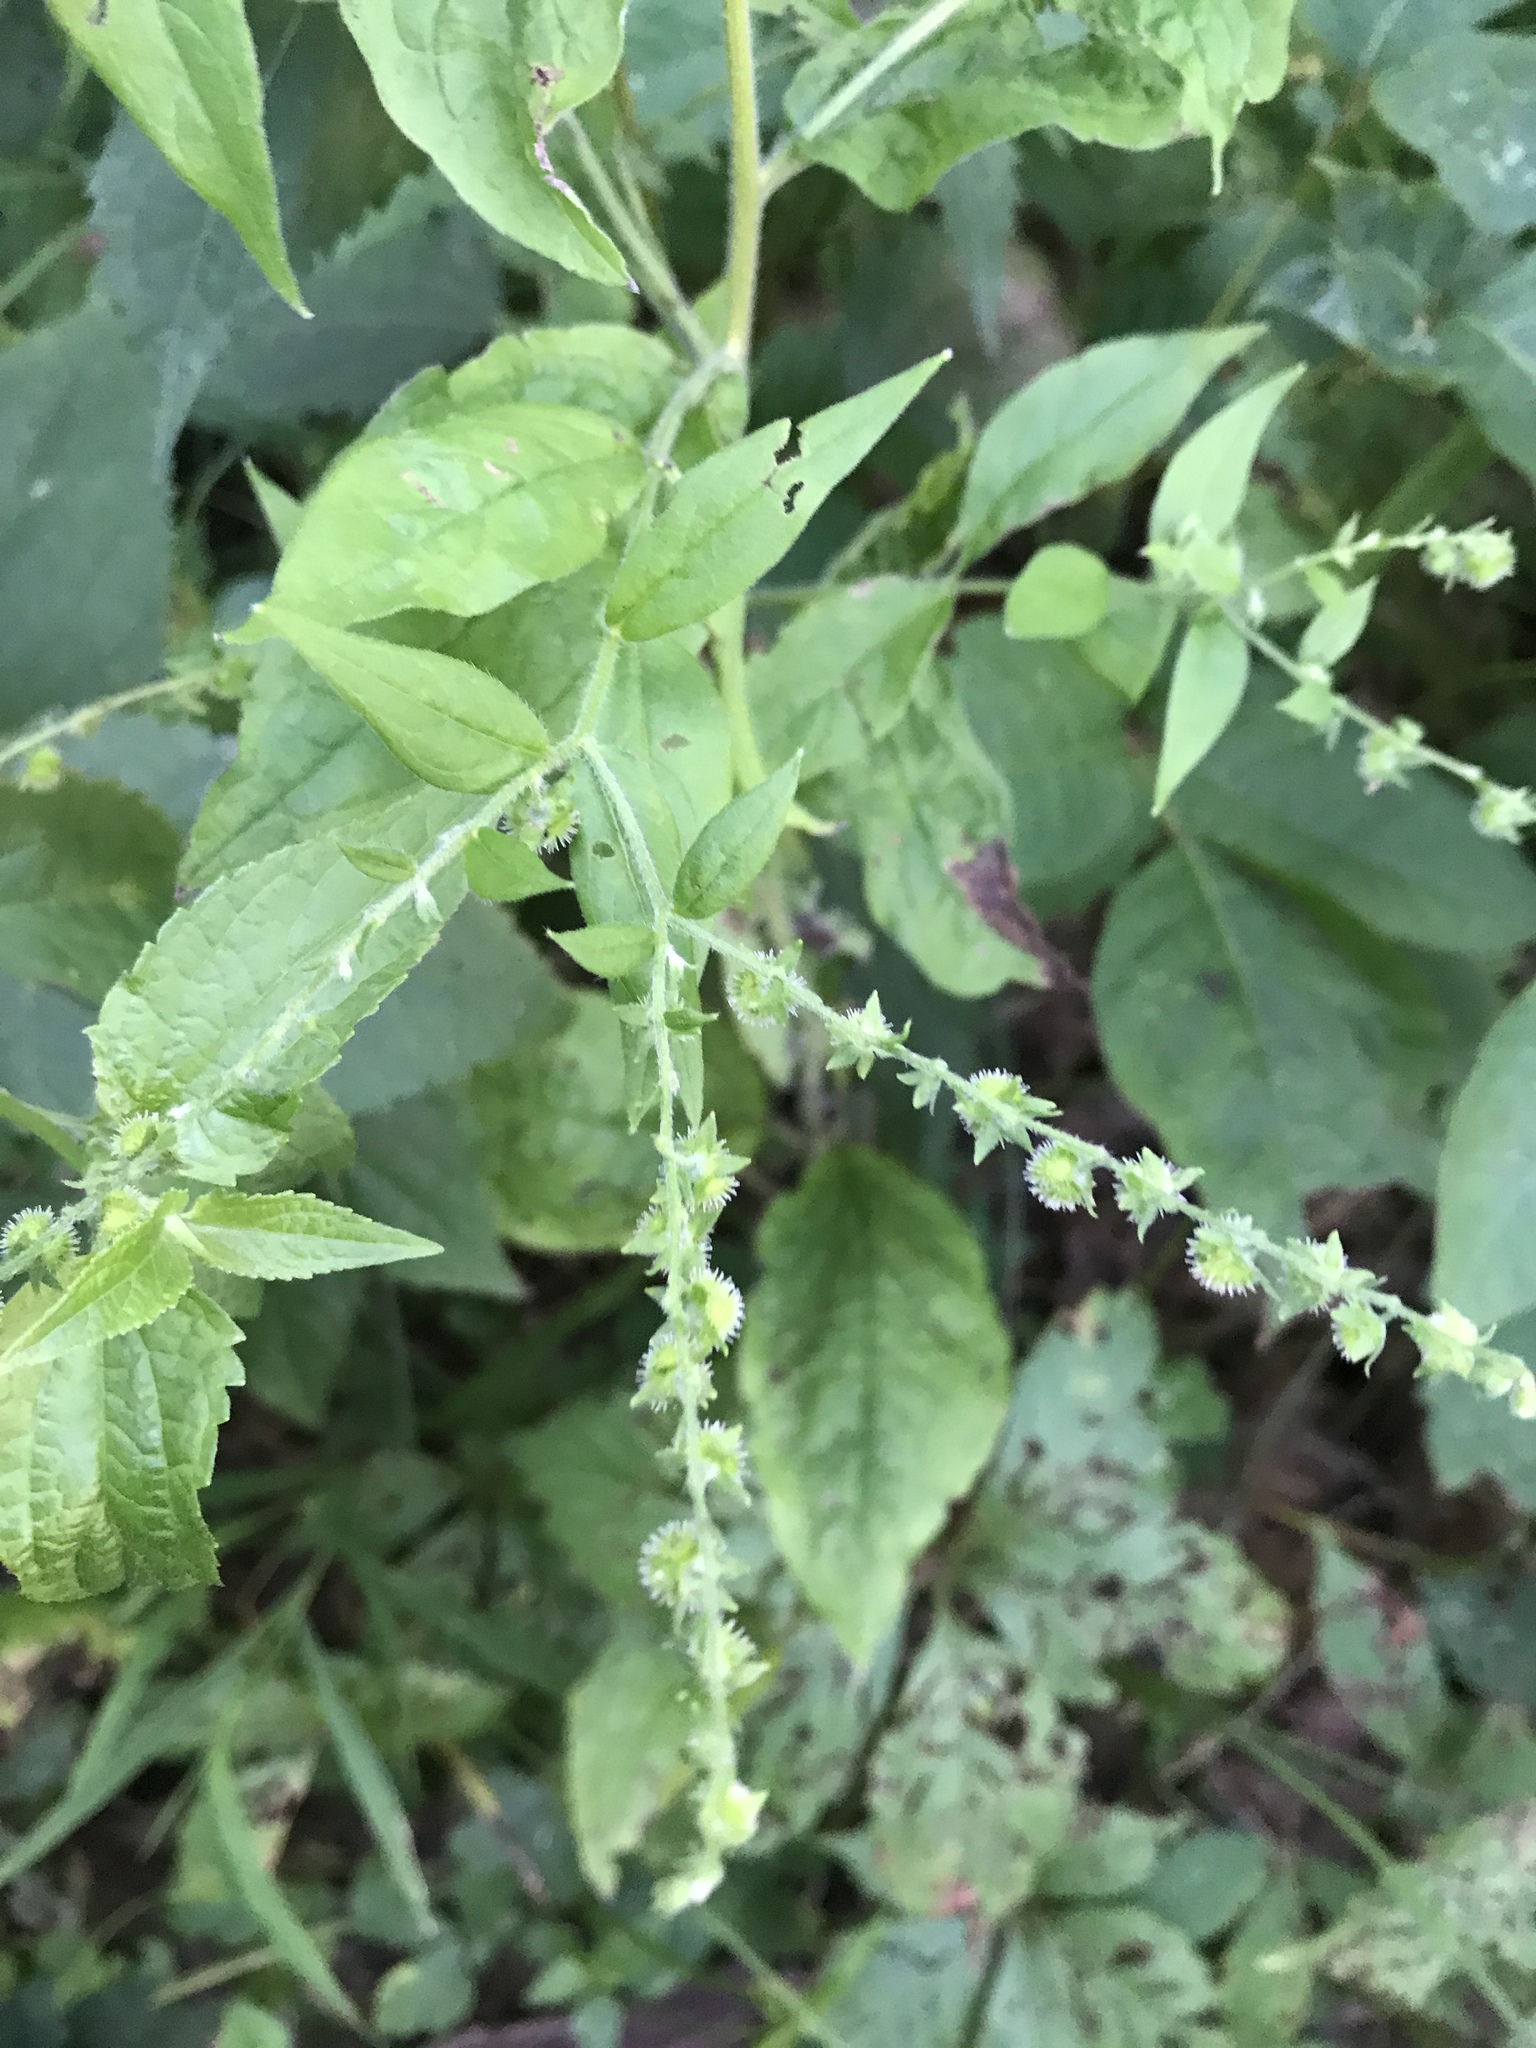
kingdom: Plantae
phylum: Tracheophyta
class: Magnoliopsida
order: Boraginales
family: Boraginaceae
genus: Hackelia
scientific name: Hackelia virginiana
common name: Beggar's-lice
